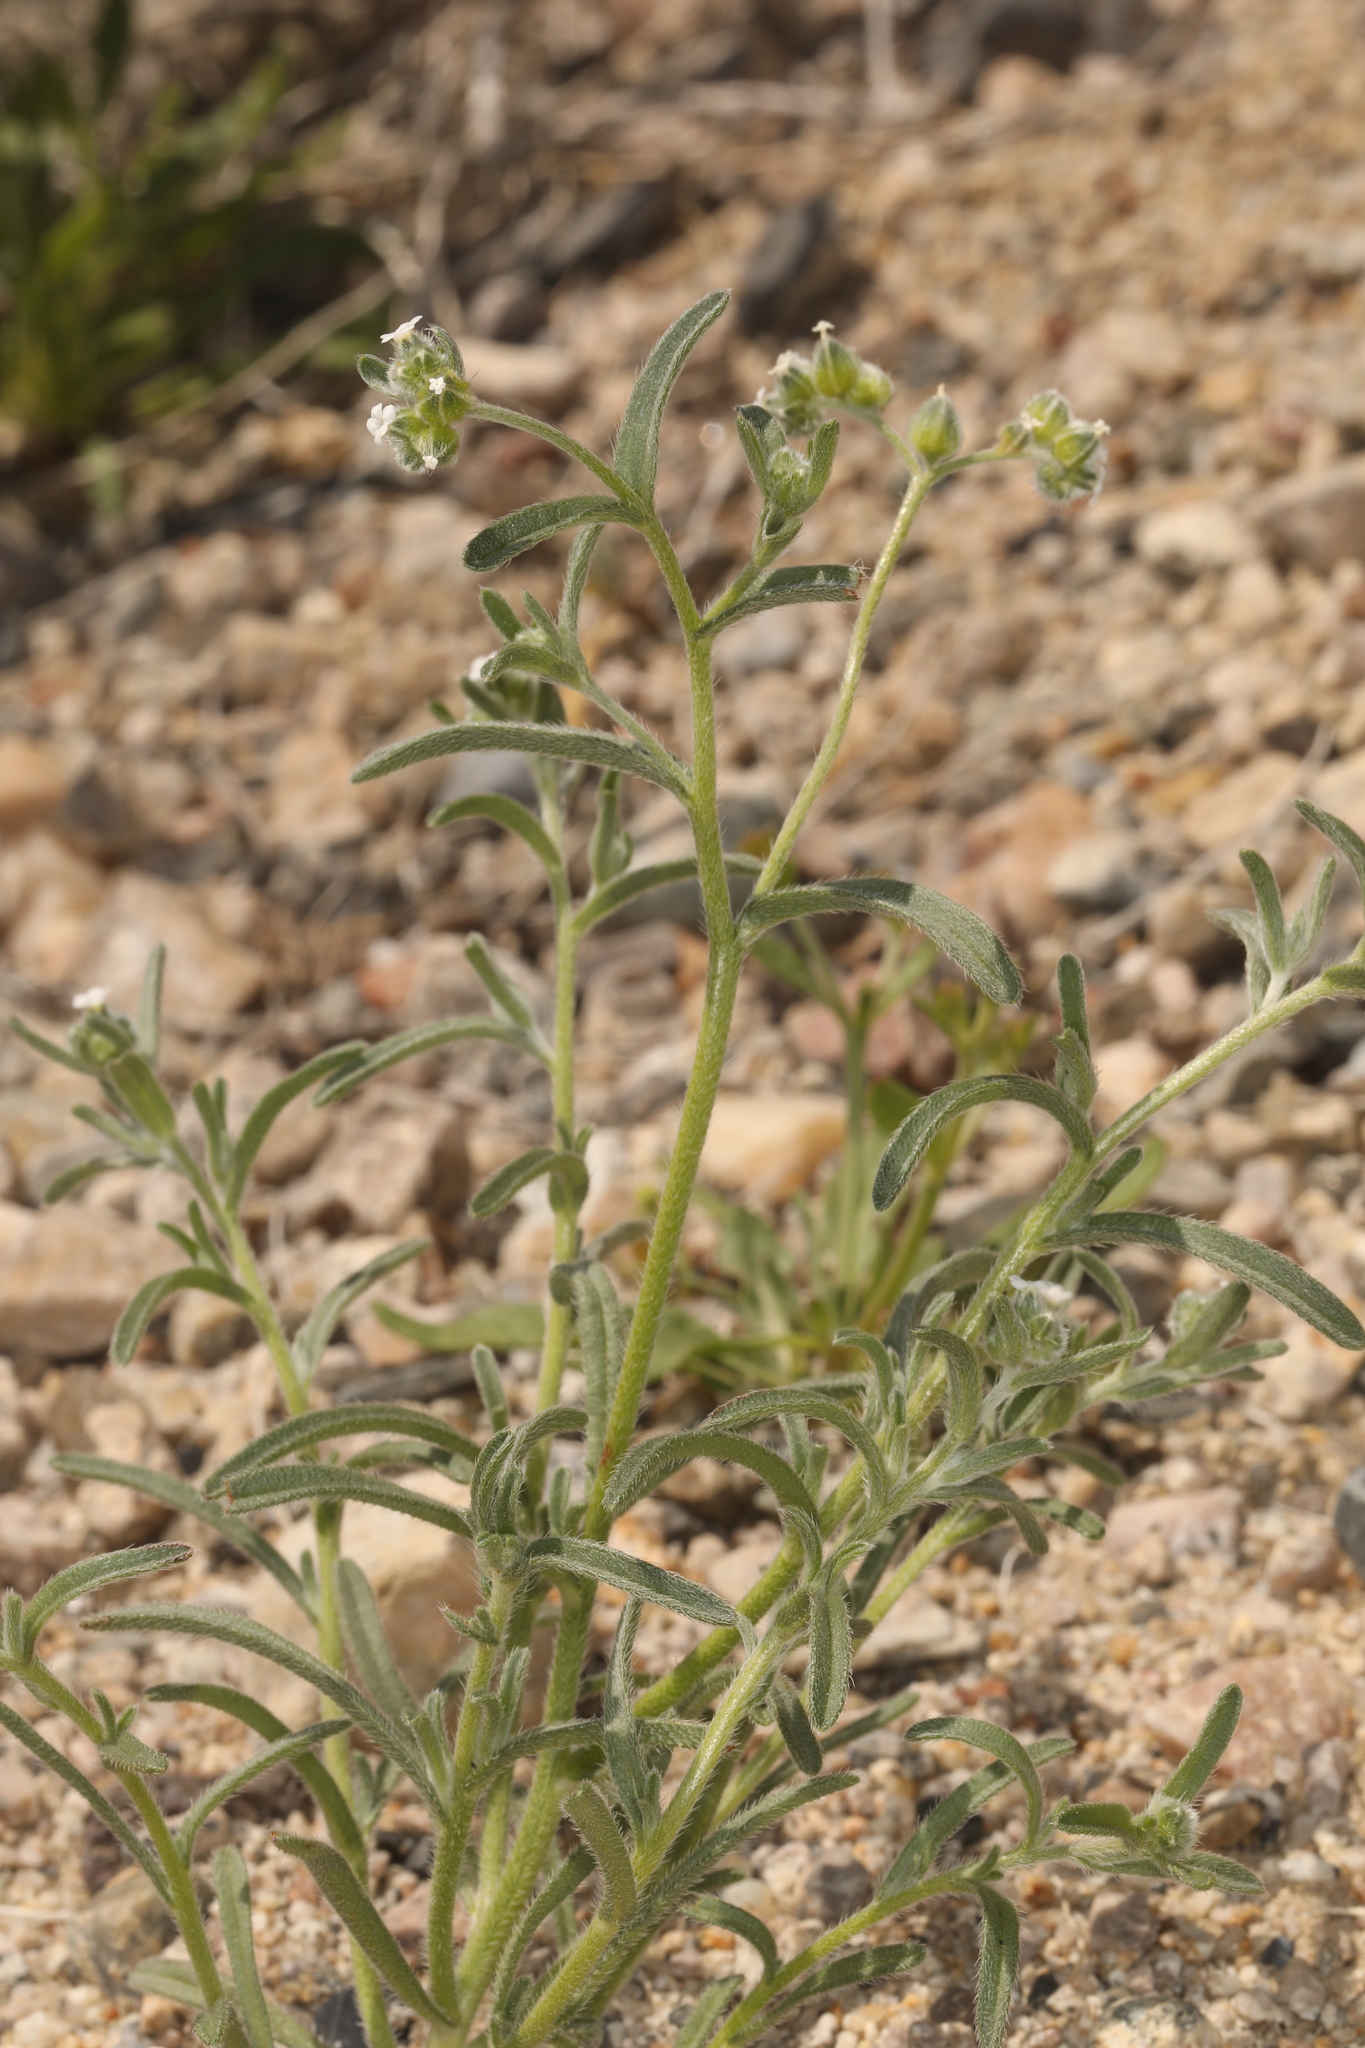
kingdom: Plantae
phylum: Tracheophyta
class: Magnoliopsida
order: Boraginales
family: Boraginaceae
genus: Cryptantha
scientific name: Cryptantha pterocarya
